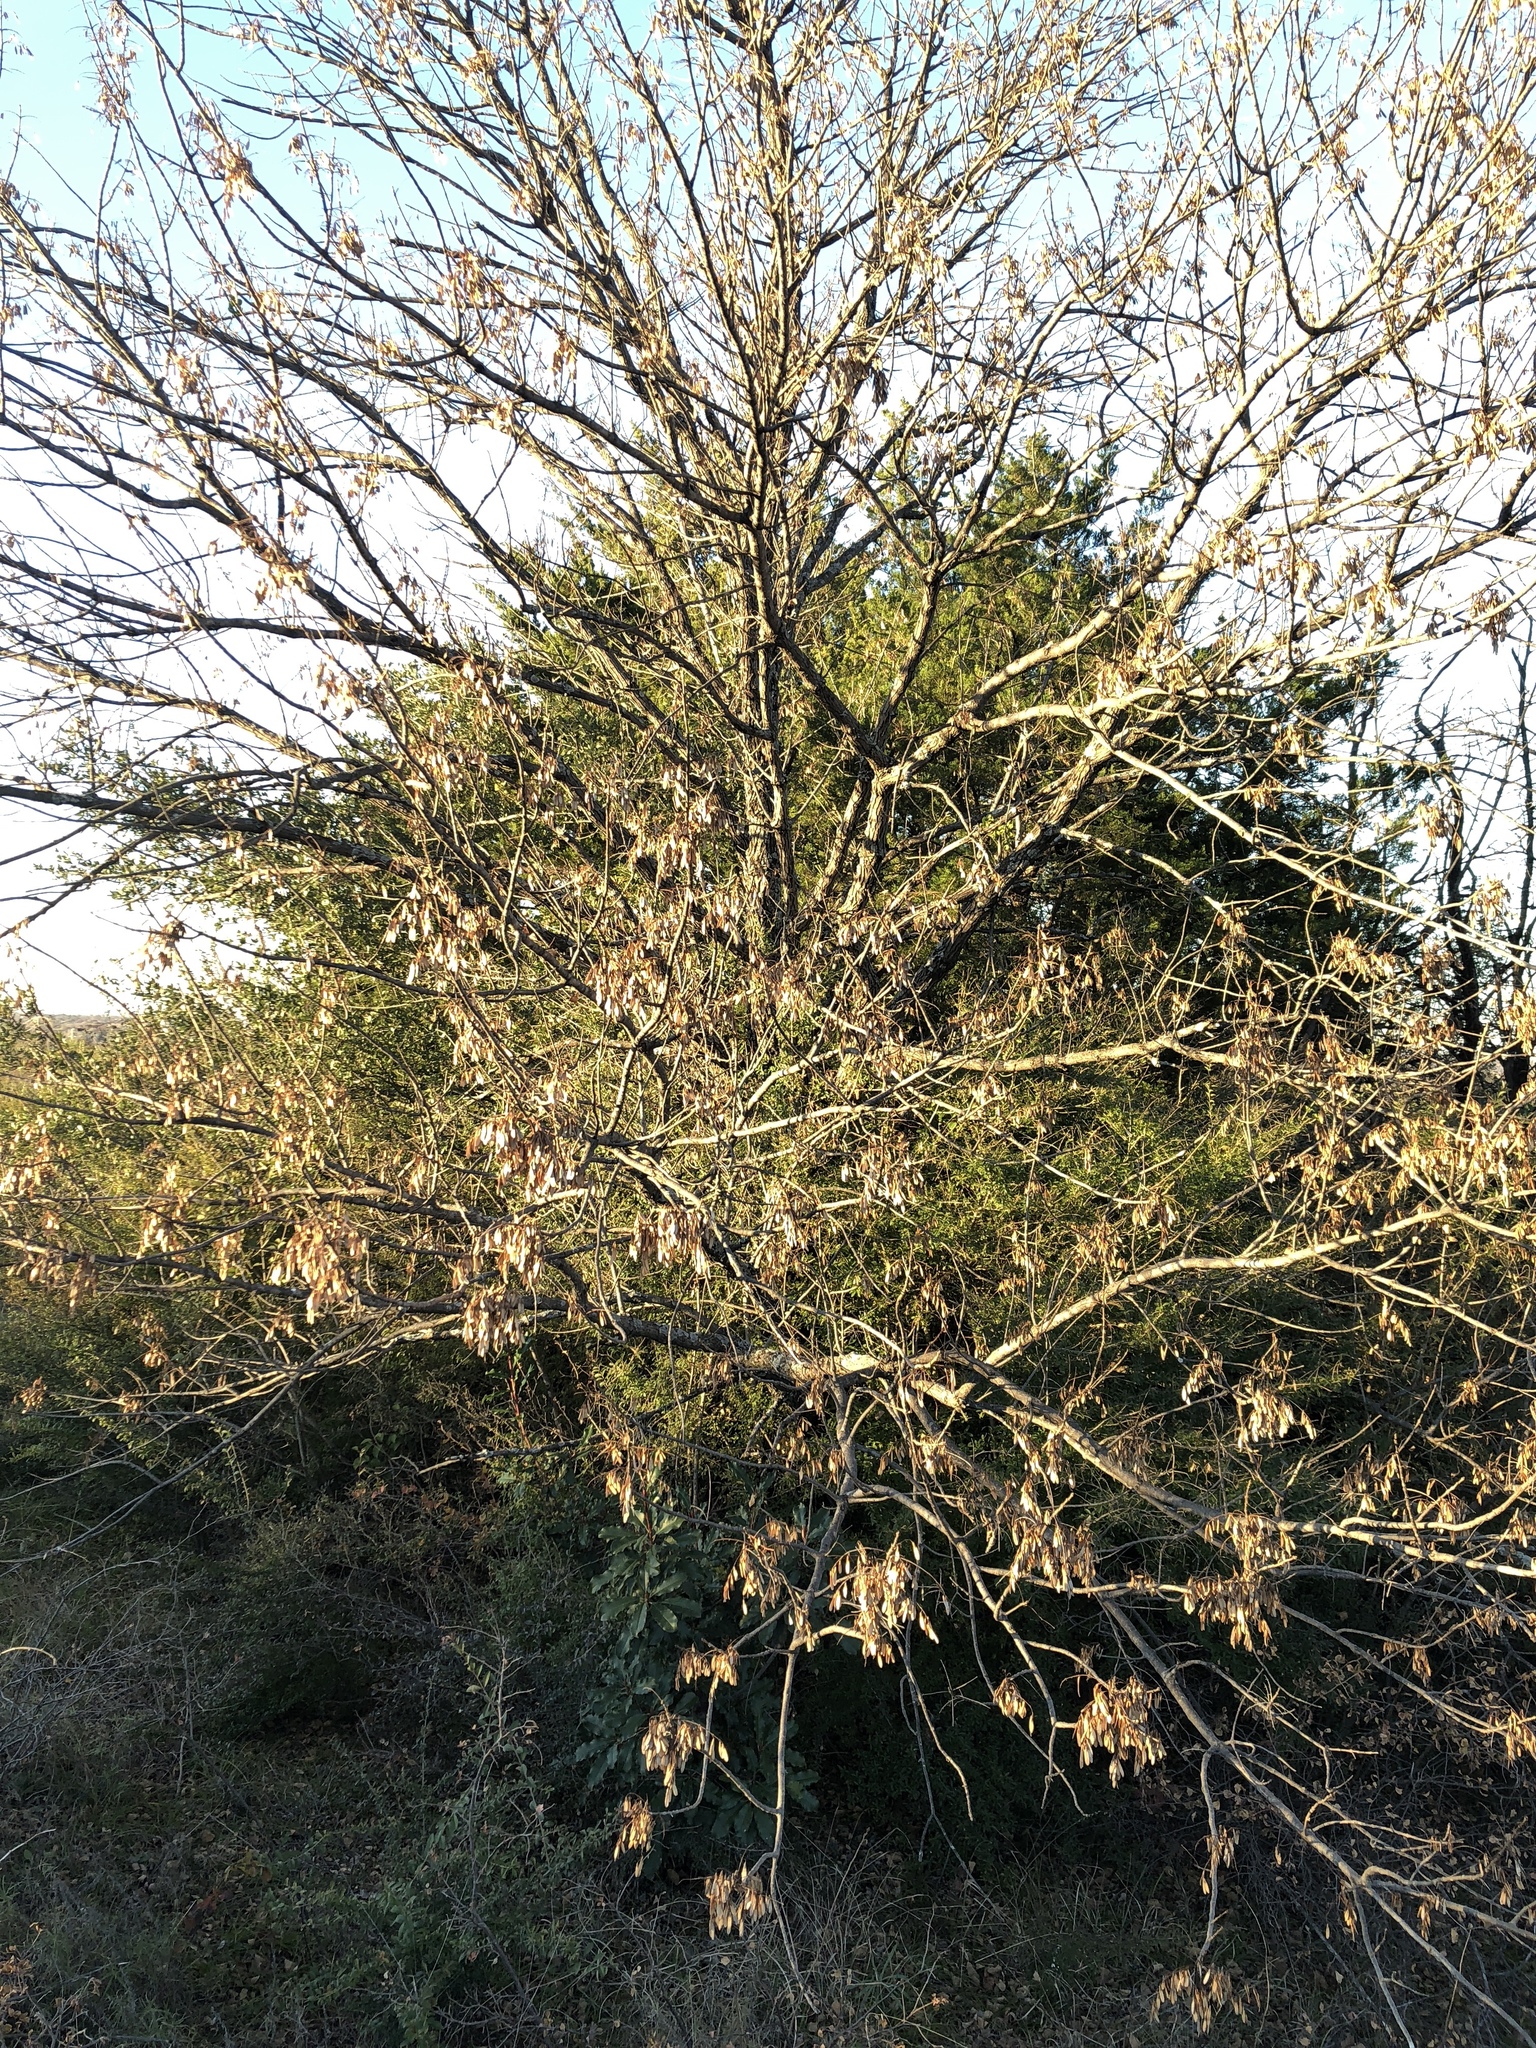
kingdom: Plantae
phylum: Tracheophyta
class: Magnoliopsida
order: Lamiales
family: Oleaceae
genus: Fraxinus
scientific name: Fraxinus albicans
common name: Texas ash
